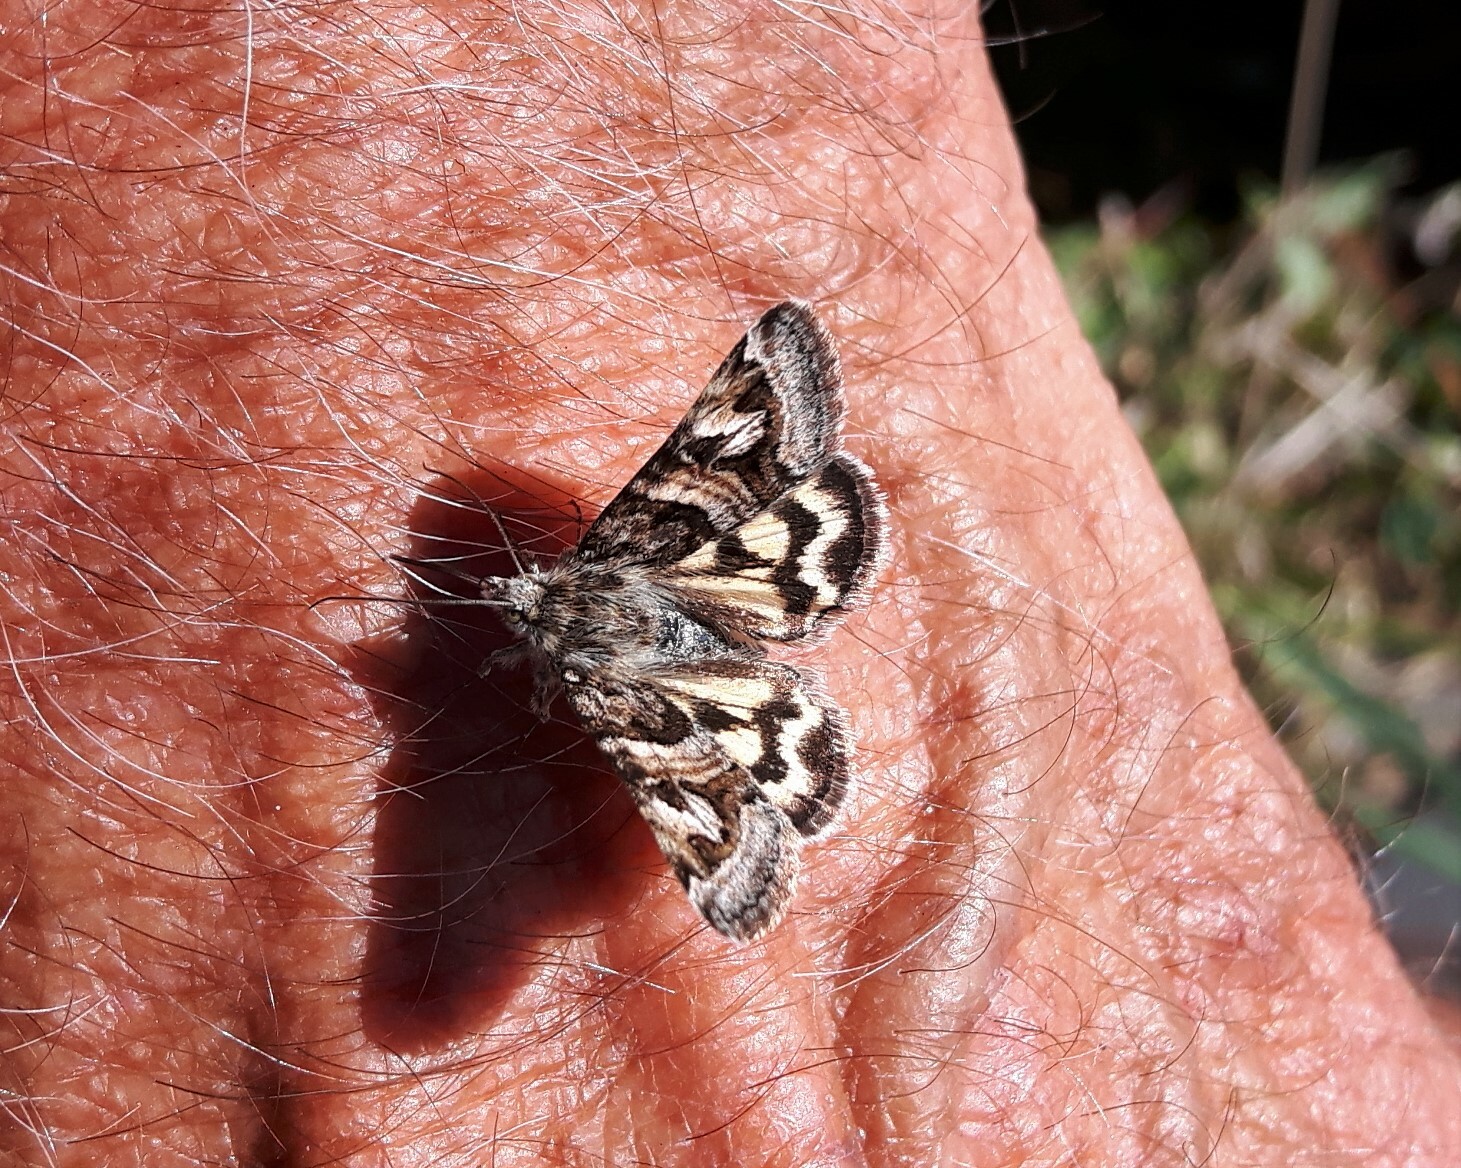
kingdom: Animalia
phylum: Arthropoda
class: Insecta
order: Lepidoptera
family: Erebidae
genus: Drasteria
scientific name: Drasteria petricola
